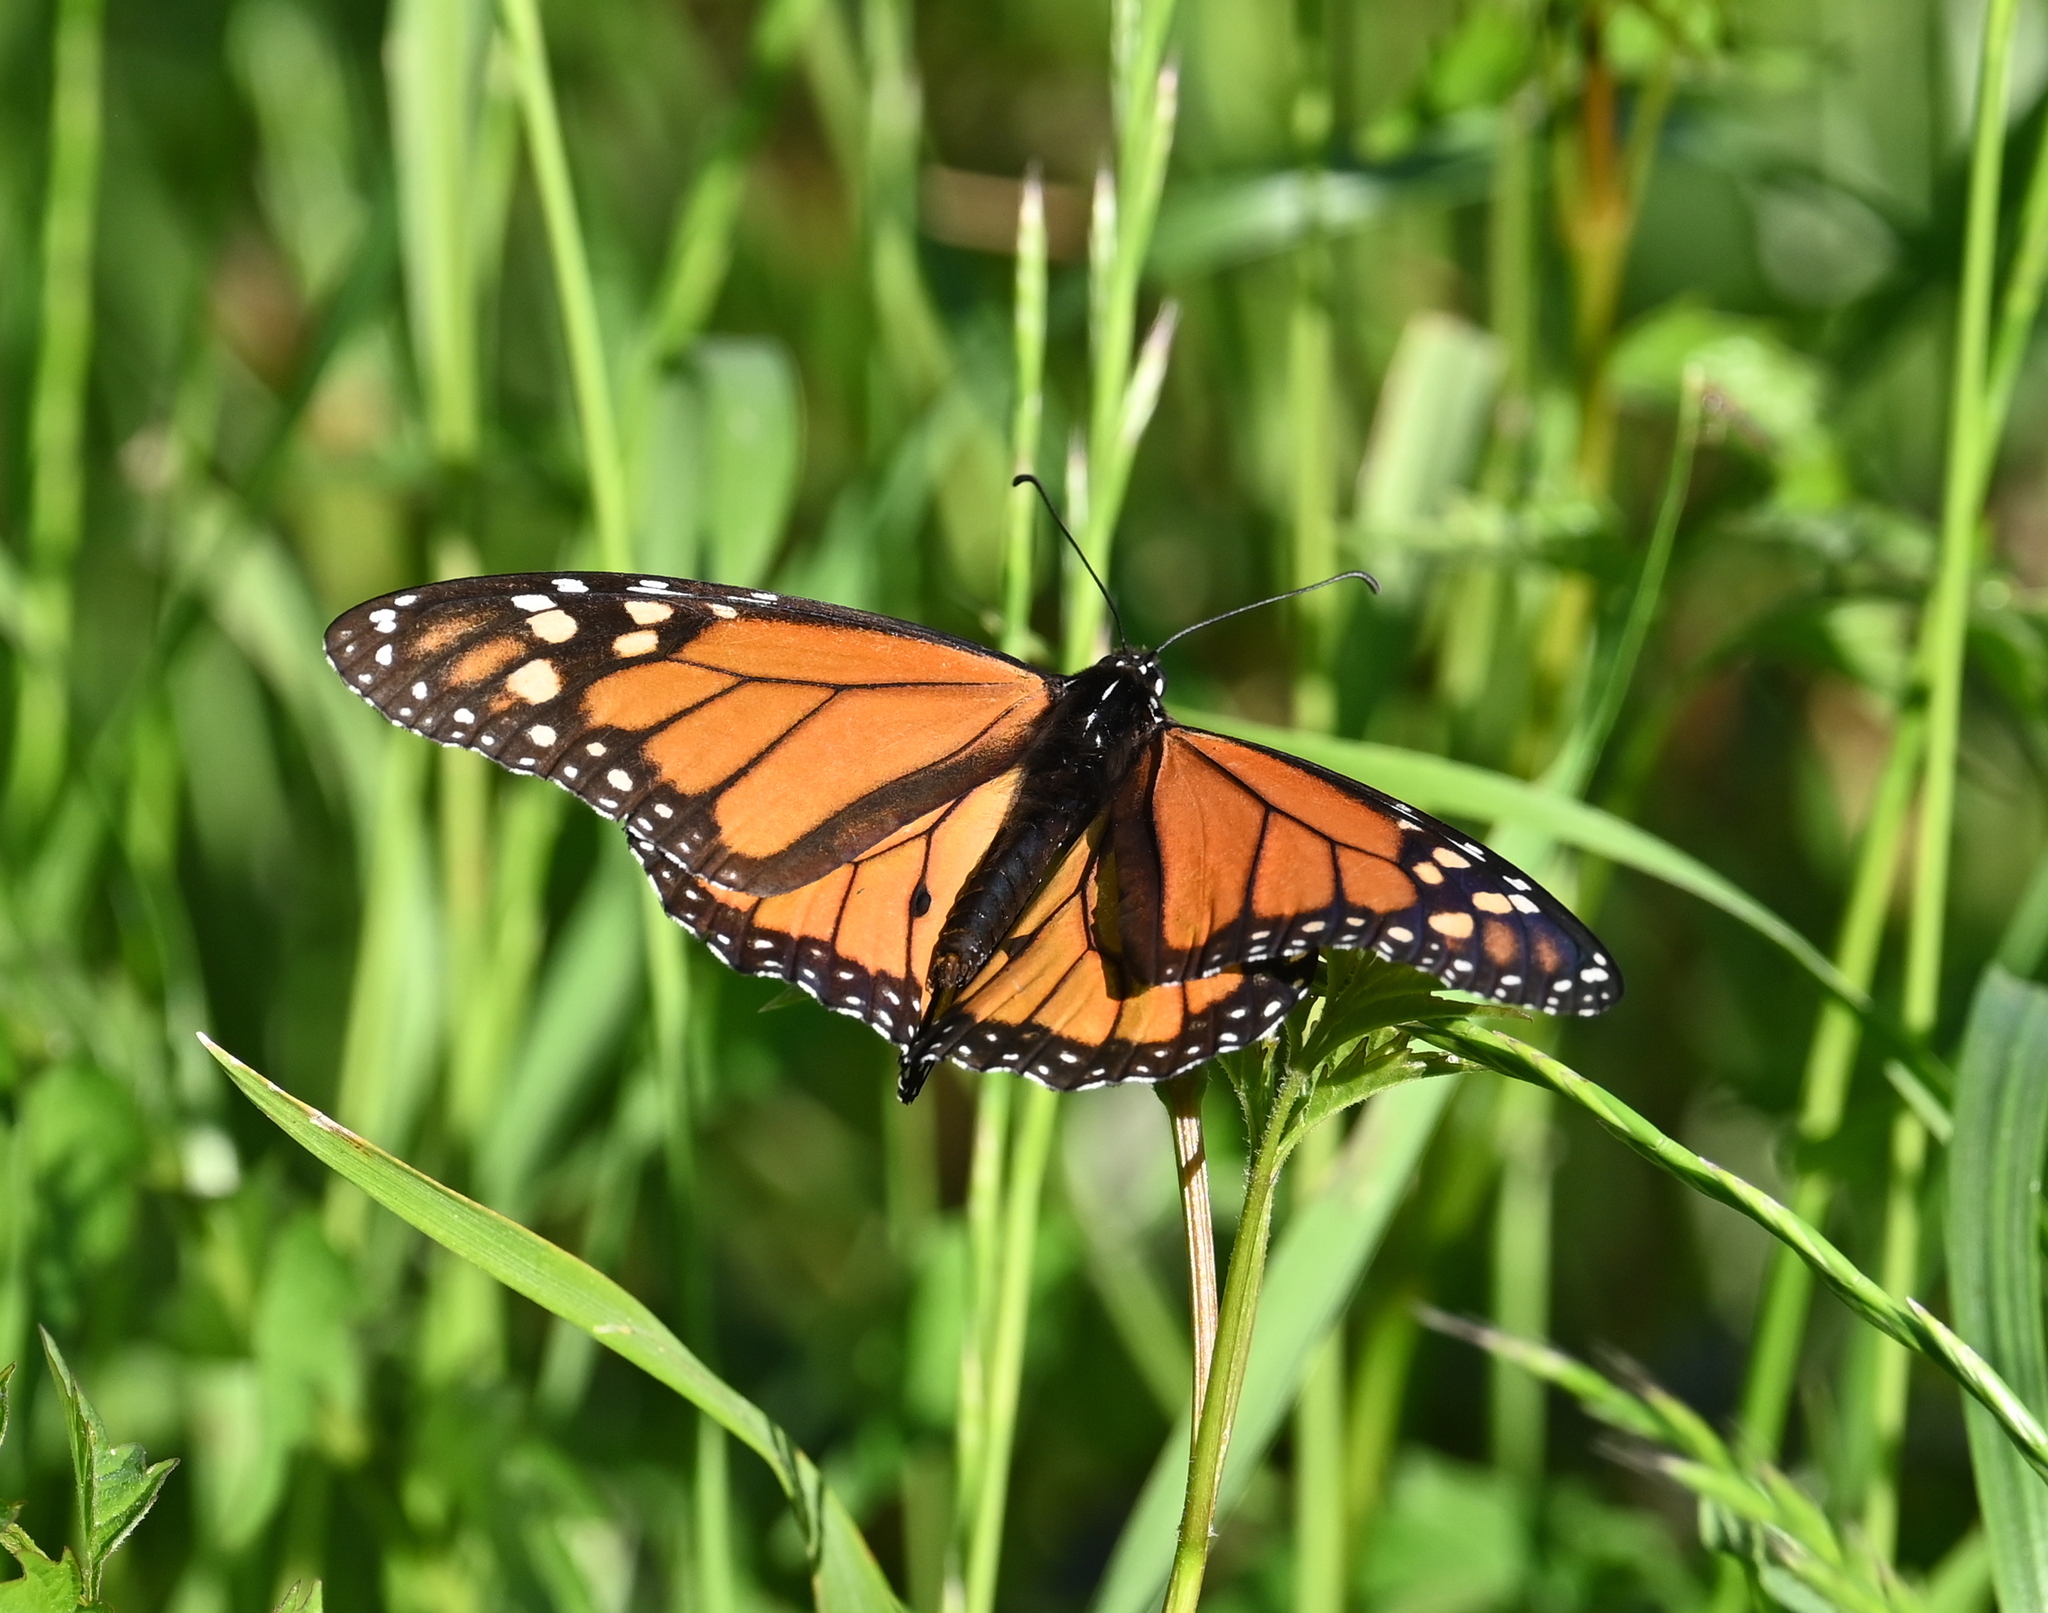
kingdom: Animalia
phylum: Arthropoda
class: Insecta
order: Lepidoptera
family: Nymphalidae
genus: Danaus
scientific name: Danaus plexippus
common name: Monarch
